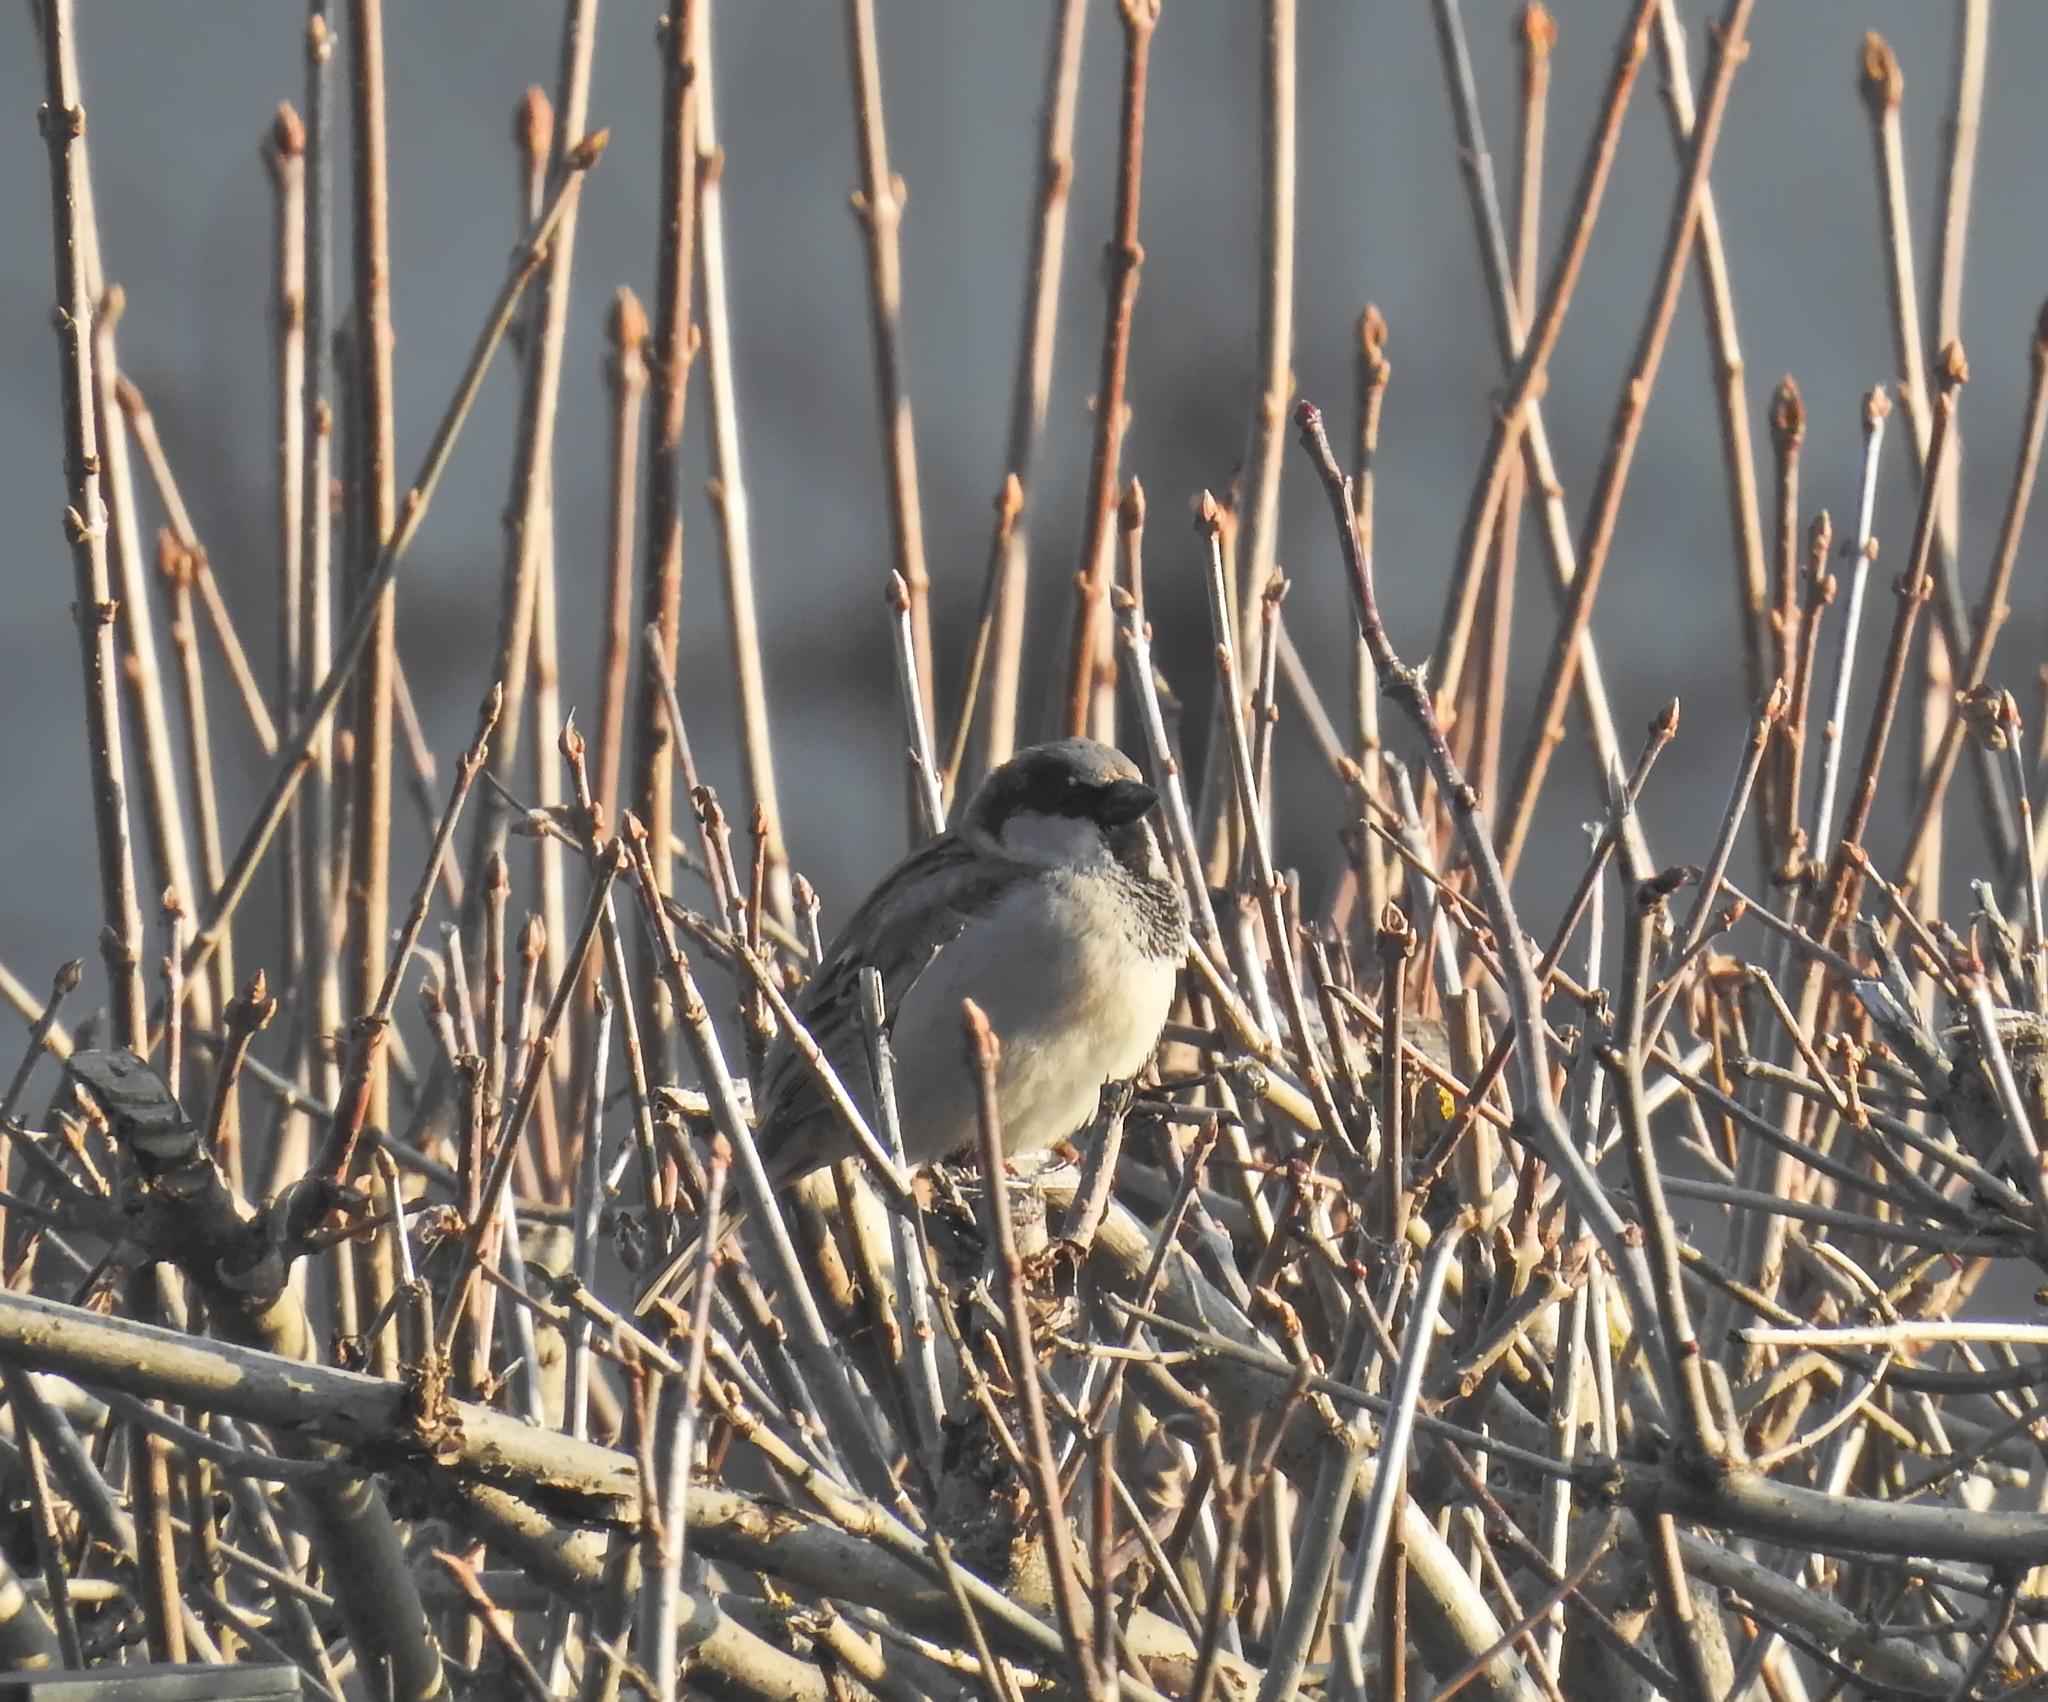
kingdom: Animalia
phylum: Chordata
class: Aves
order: Passeriformes
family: Passeridae
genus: Passer
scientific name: Passer domesticus
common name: House sparrow
